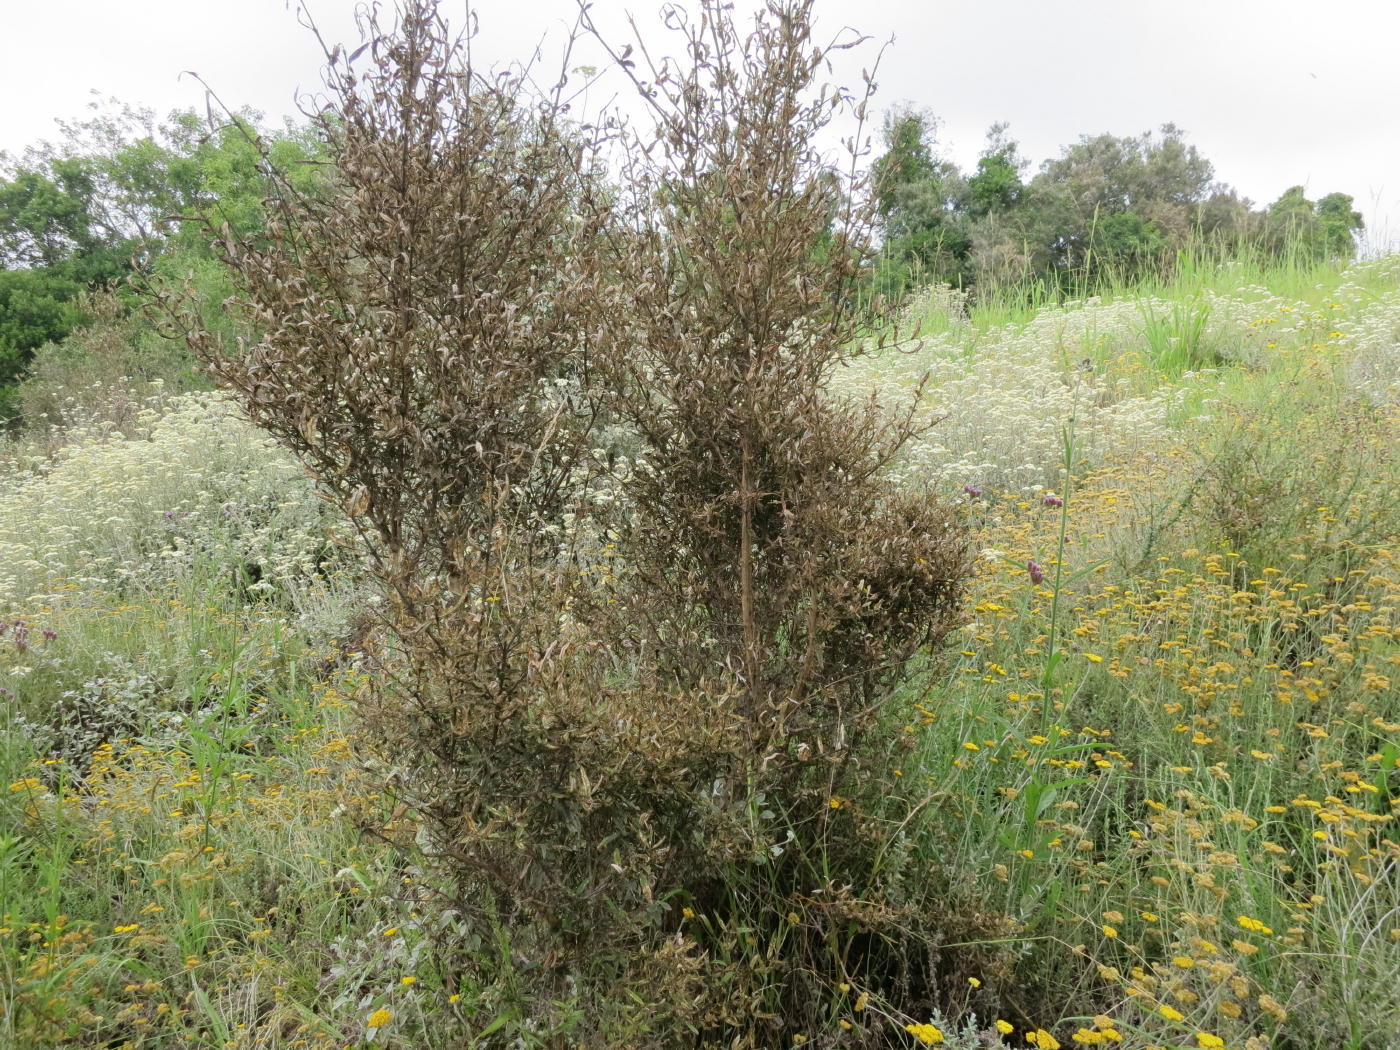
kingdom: Plantae
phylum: Tracheophyta
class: Magnoliopsida
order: Lamiales
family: Scrophulariaceae
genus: Buddleja
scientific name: Buddleja saligna
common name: False olive
